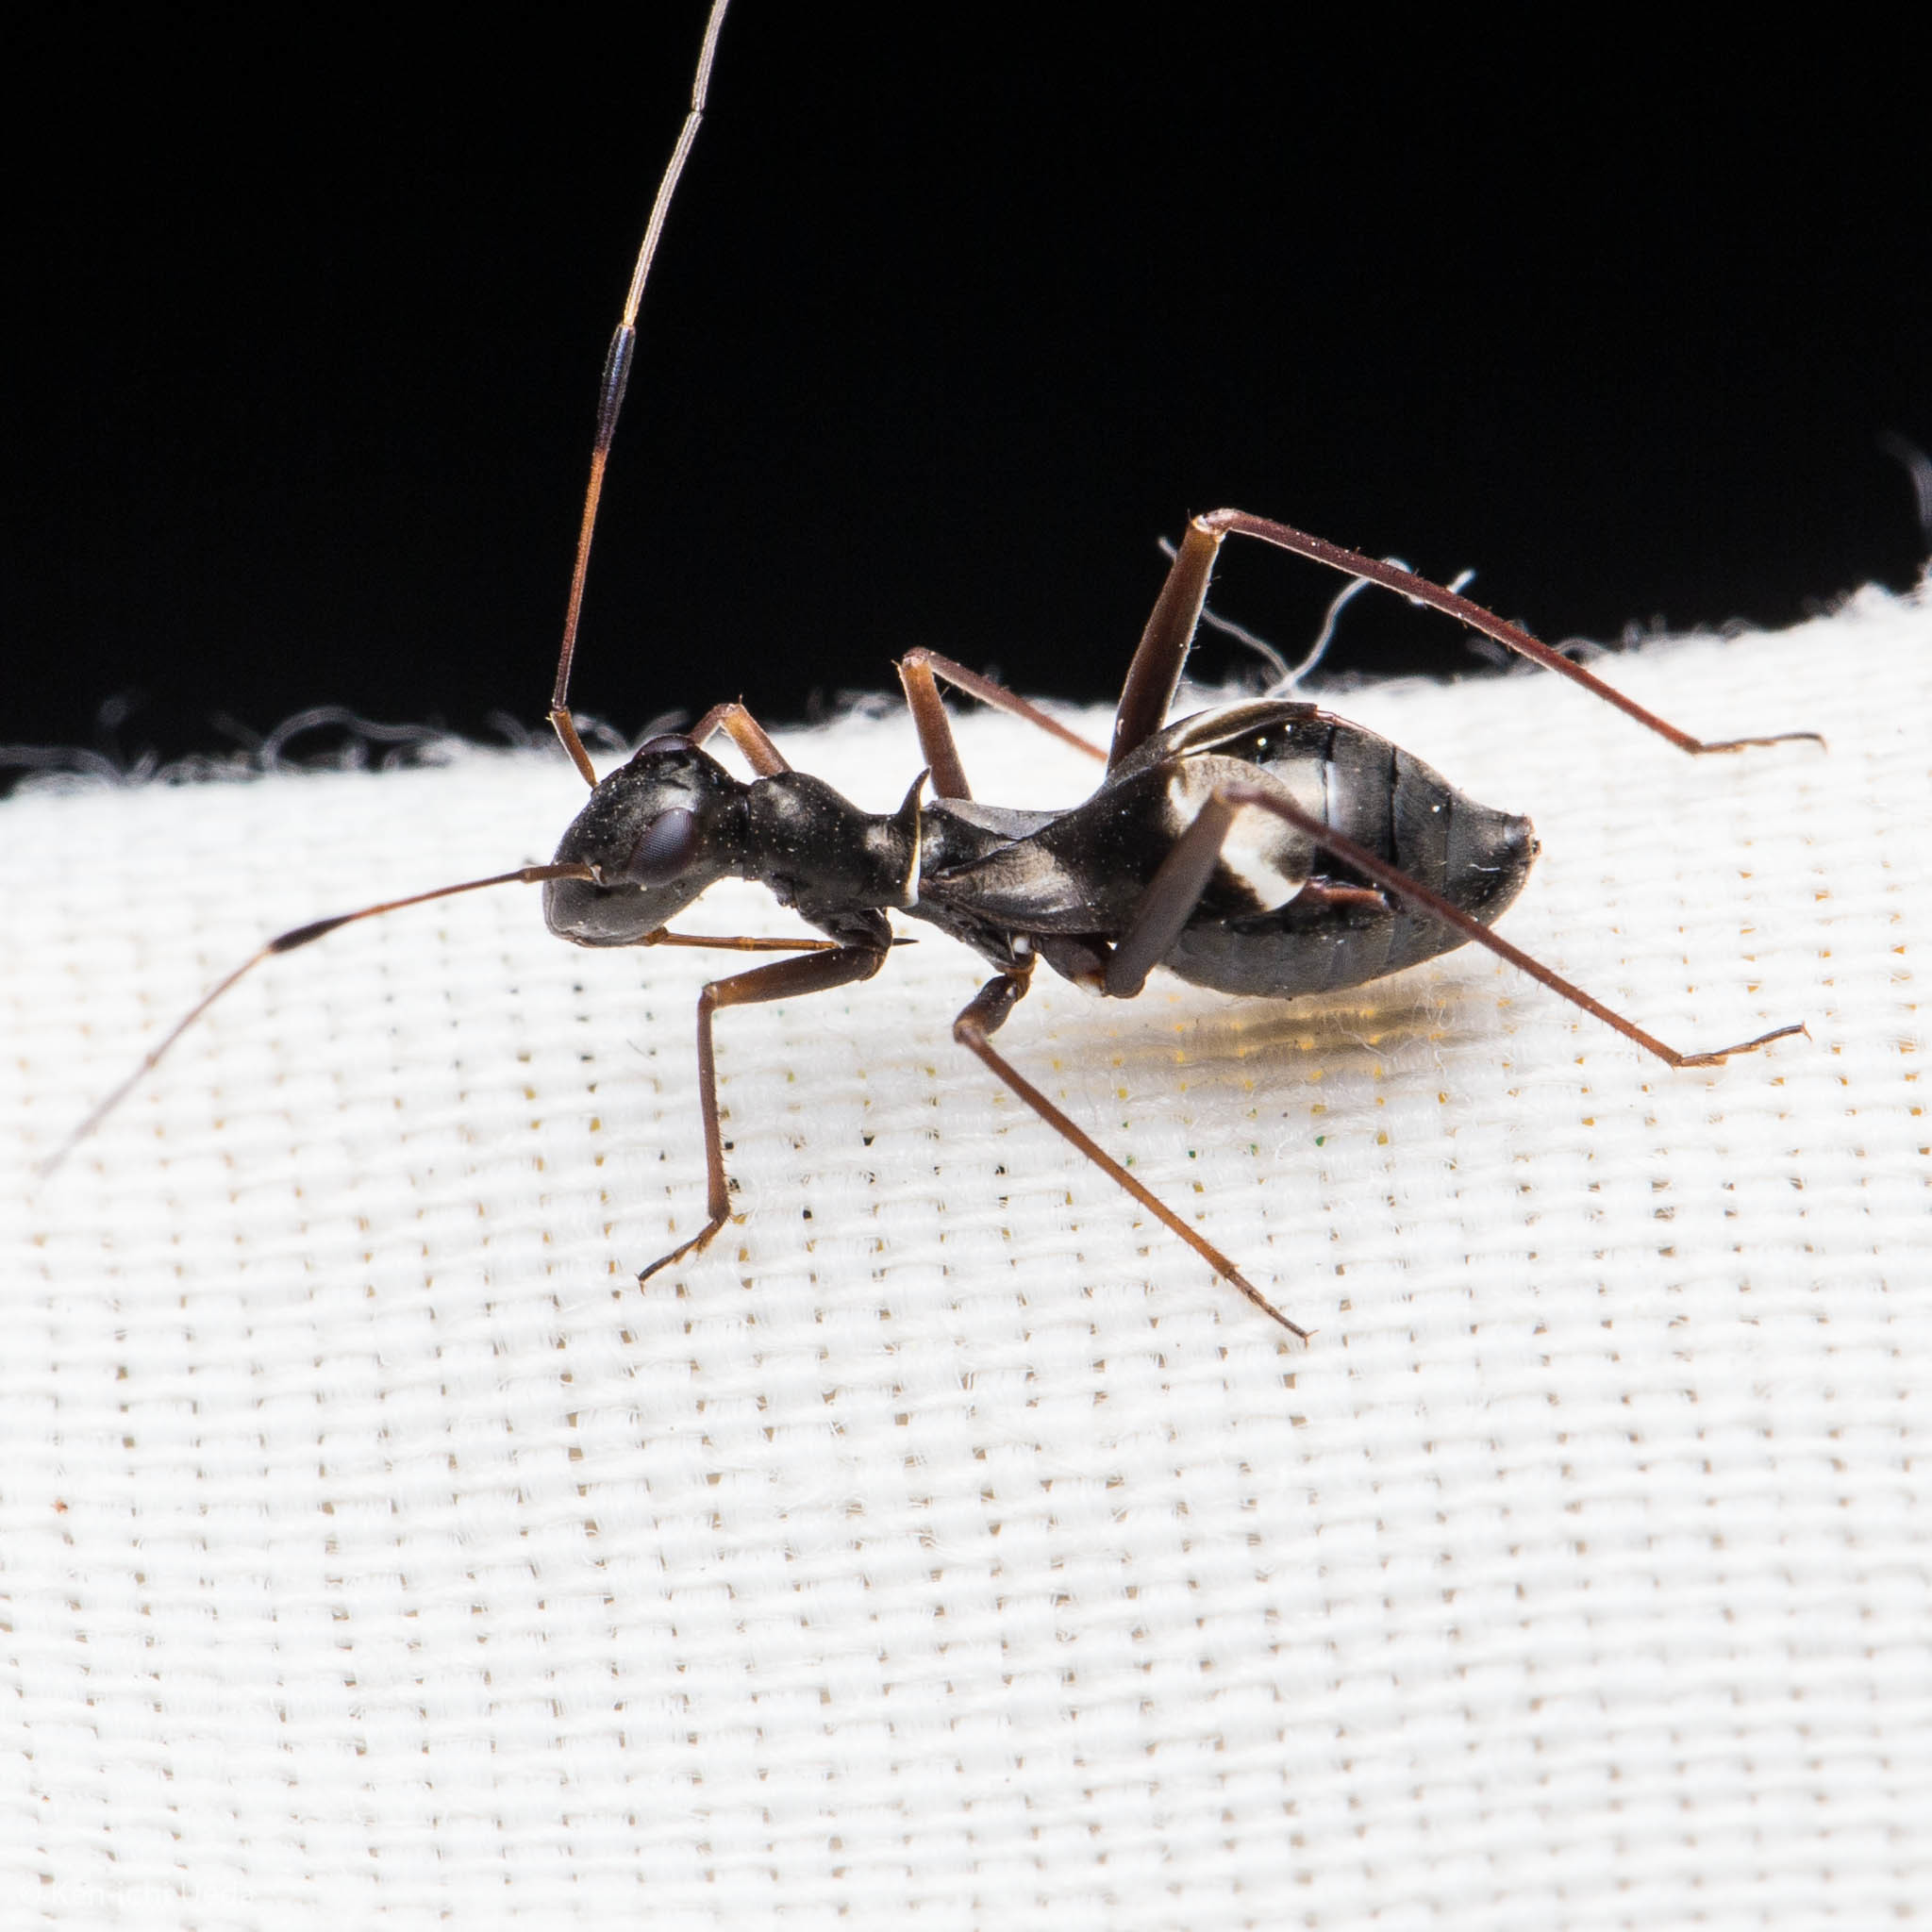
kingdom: Animalia
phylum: Arthropoda
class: Insecta
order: Hemiptera
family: Miridae
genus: Dacerla
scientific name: Dacerla mediospinosa
